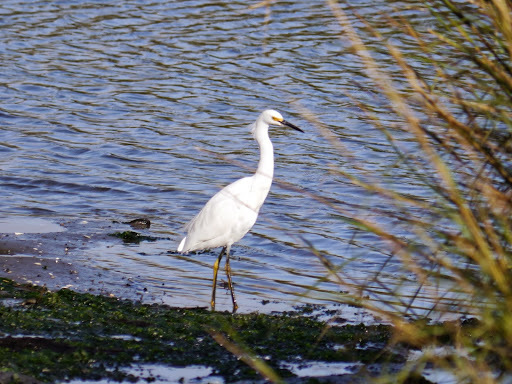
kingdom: Animalia
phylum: Chordata
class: Aves
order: Pelecaniformes
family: Ardeidae
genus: Egretta
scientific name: Egretta thula
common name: Snowy egret
